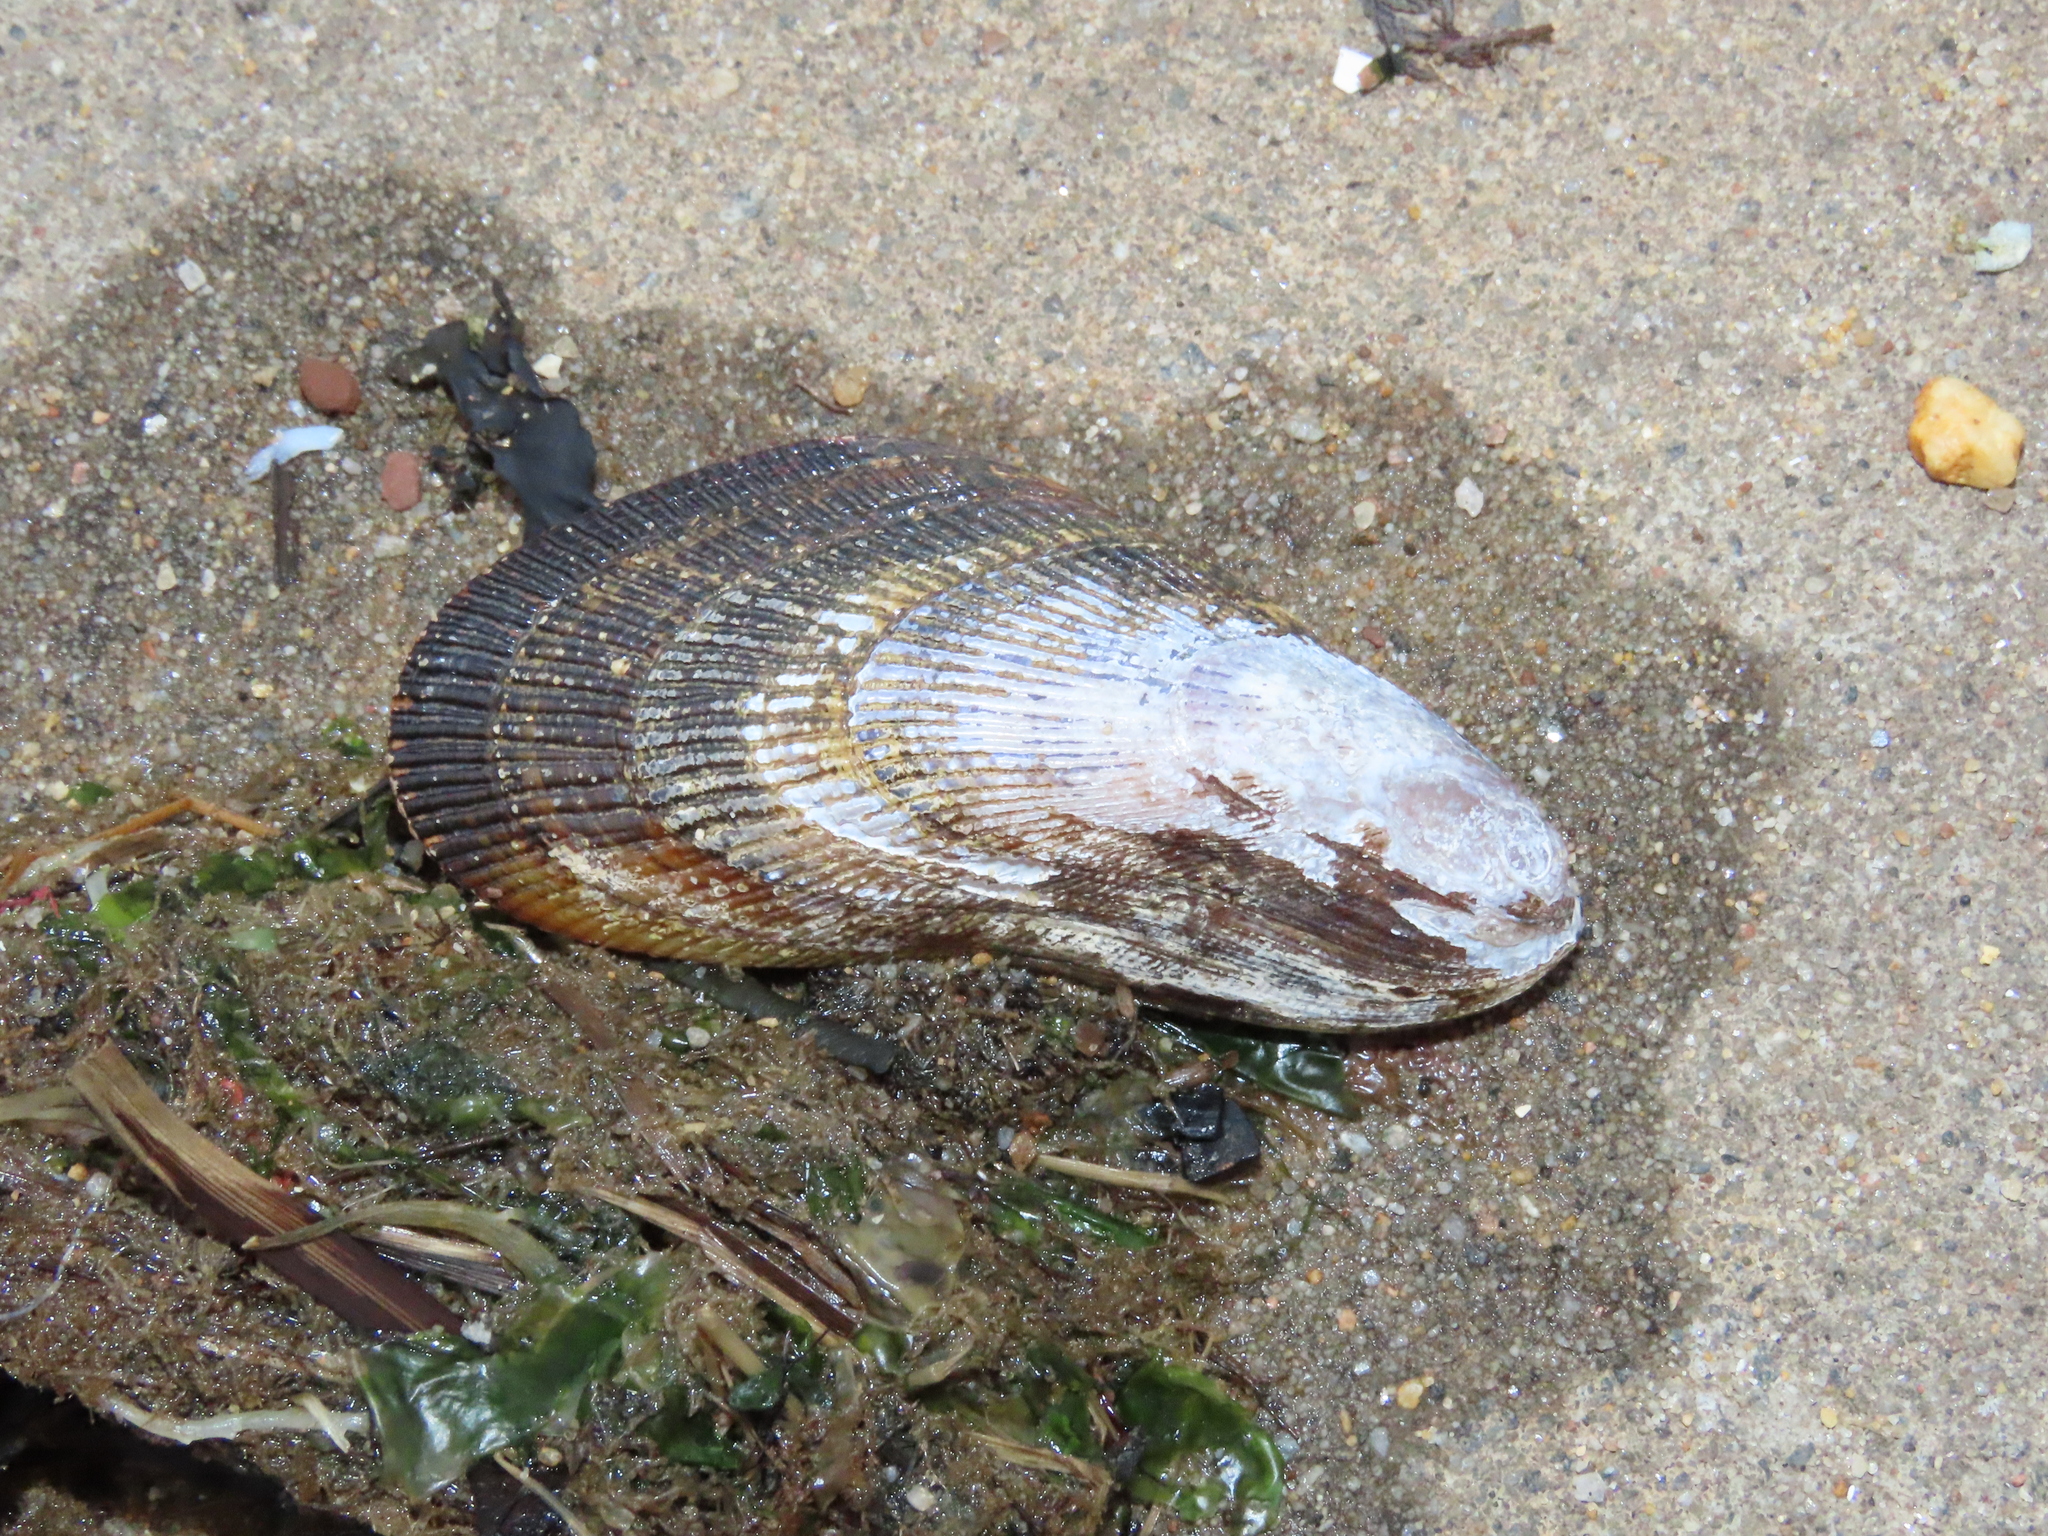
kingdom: Animalia
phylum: Mollusca
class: Bivalvia
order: Mytilida
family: Mytilidae
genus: Geukensia
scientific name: Geukensia demissa
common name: Ribbed mussel
